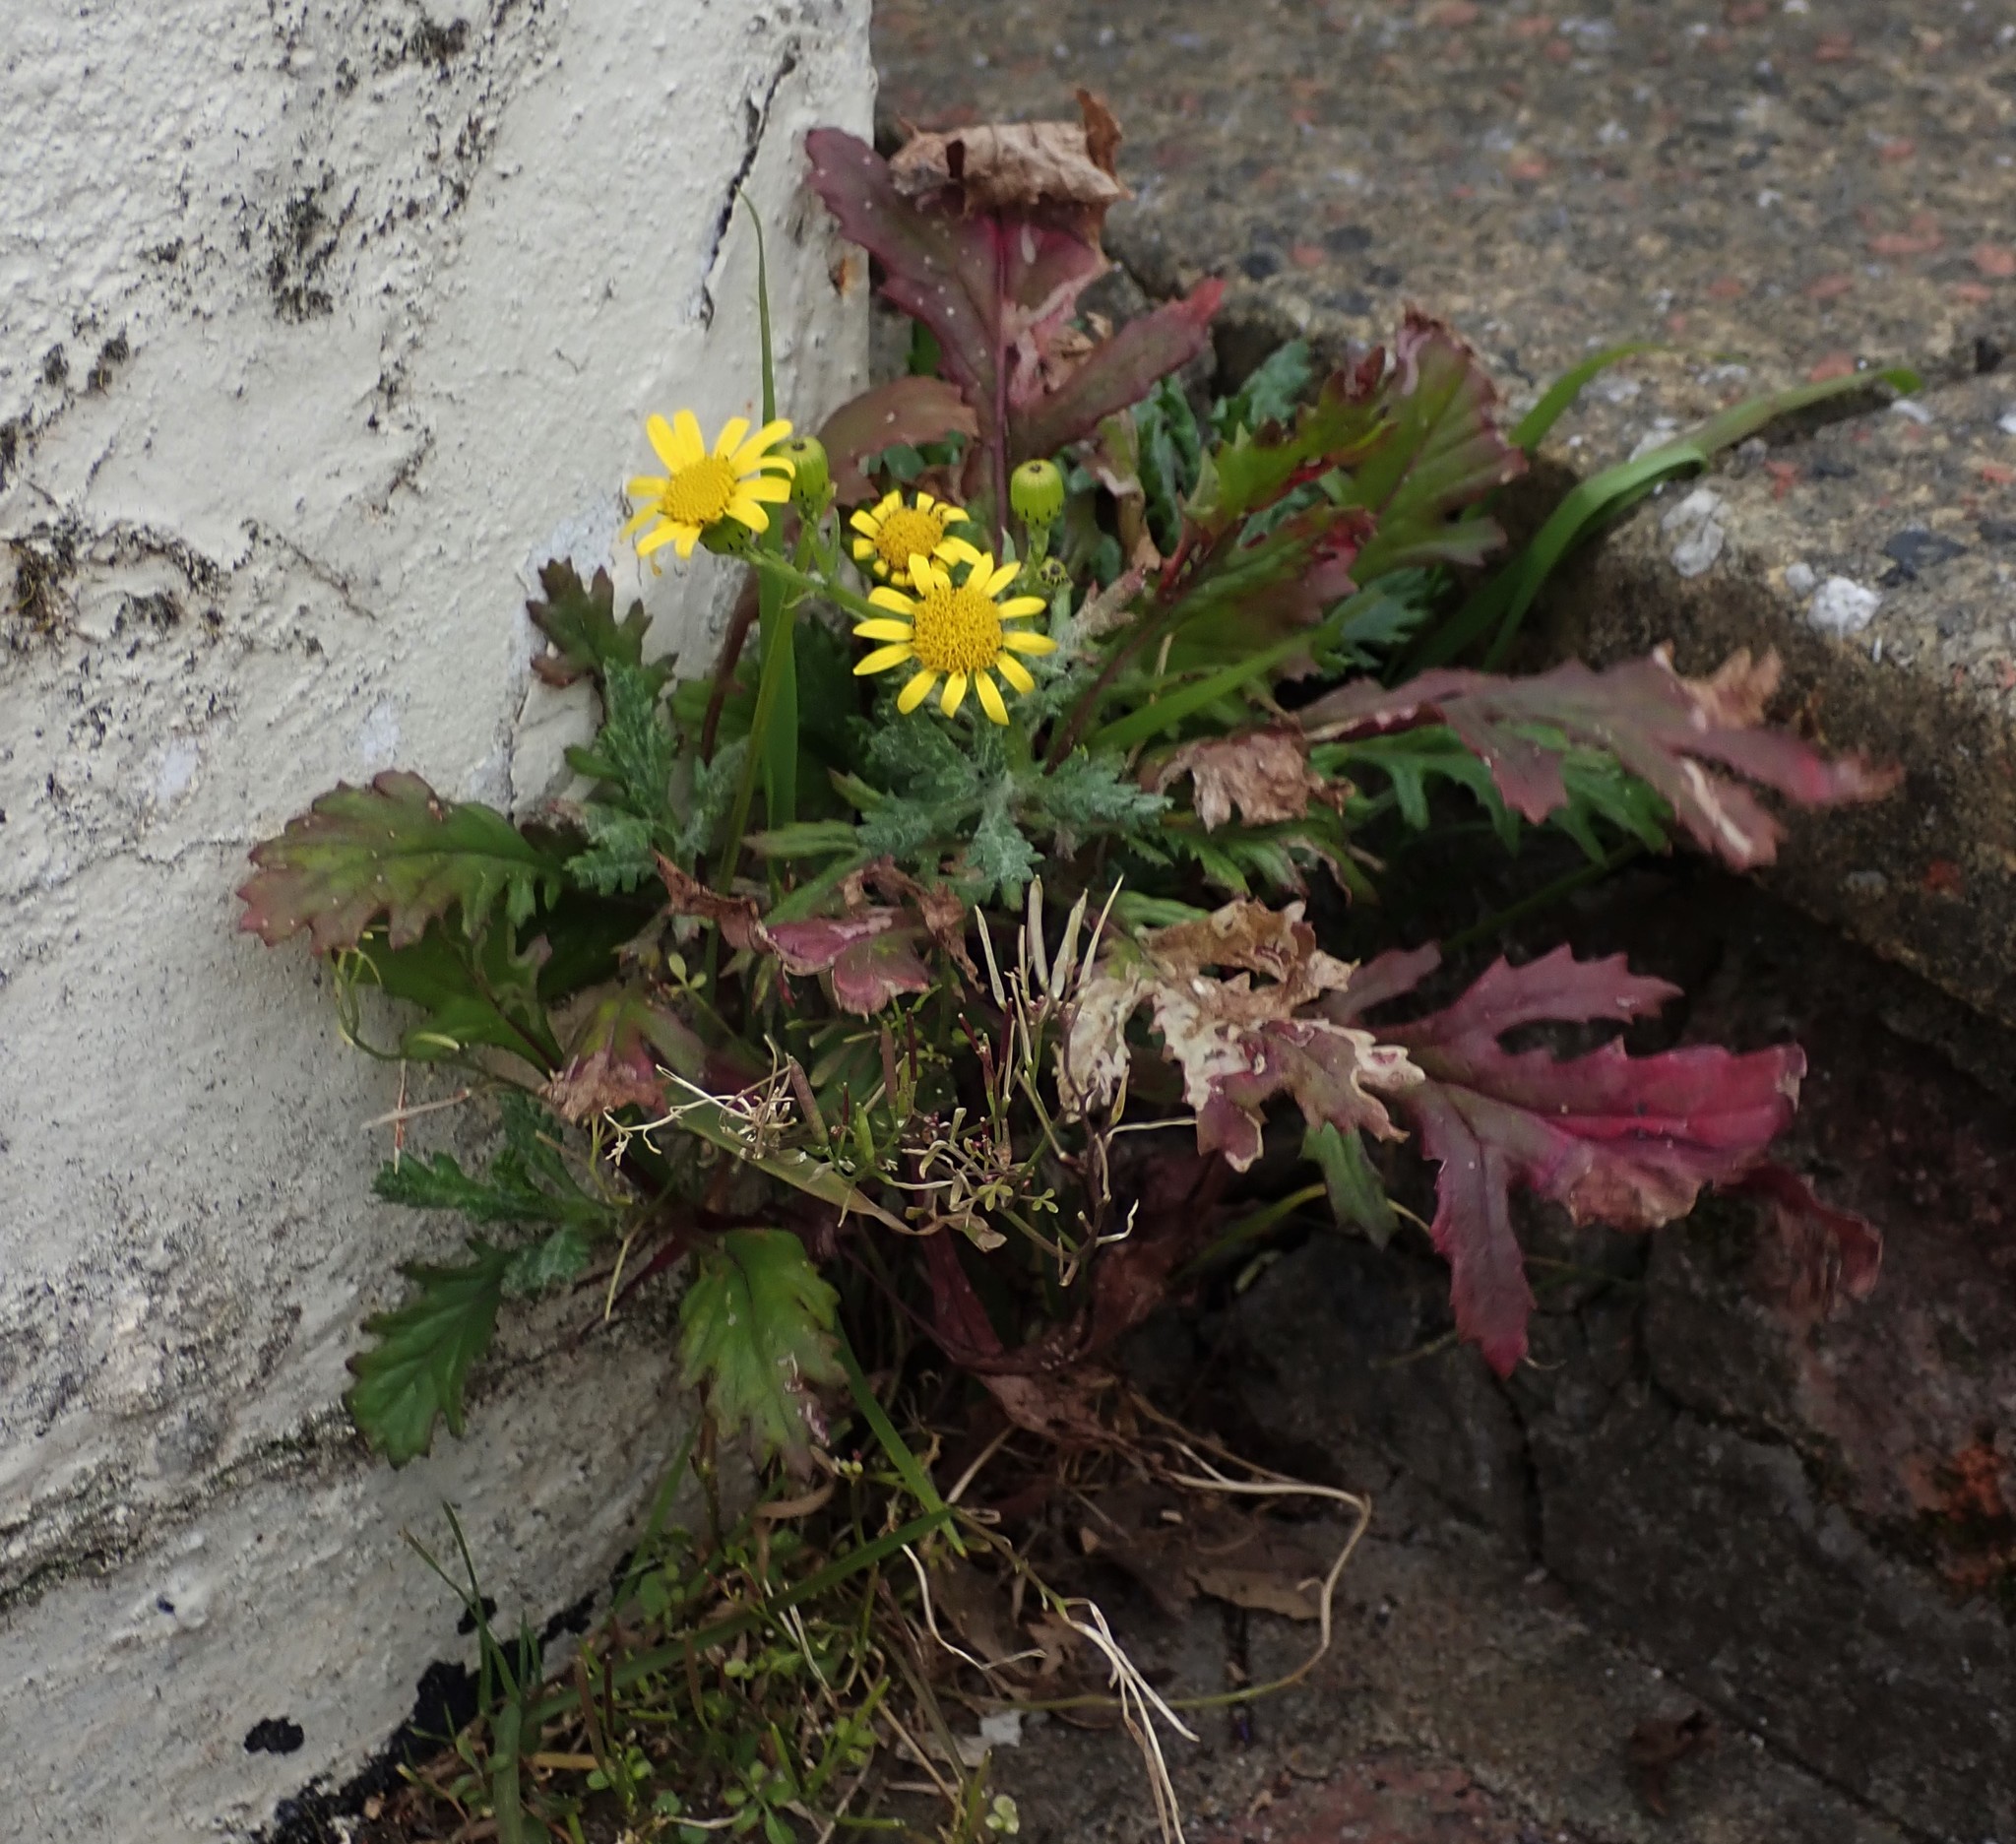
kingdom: Plantae
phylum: Tracheophyta
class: Magnoliopsida
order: Asterales
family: Asteraceae
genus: Senecio
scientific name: Senecio squalidus
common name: Oxford ragwort
